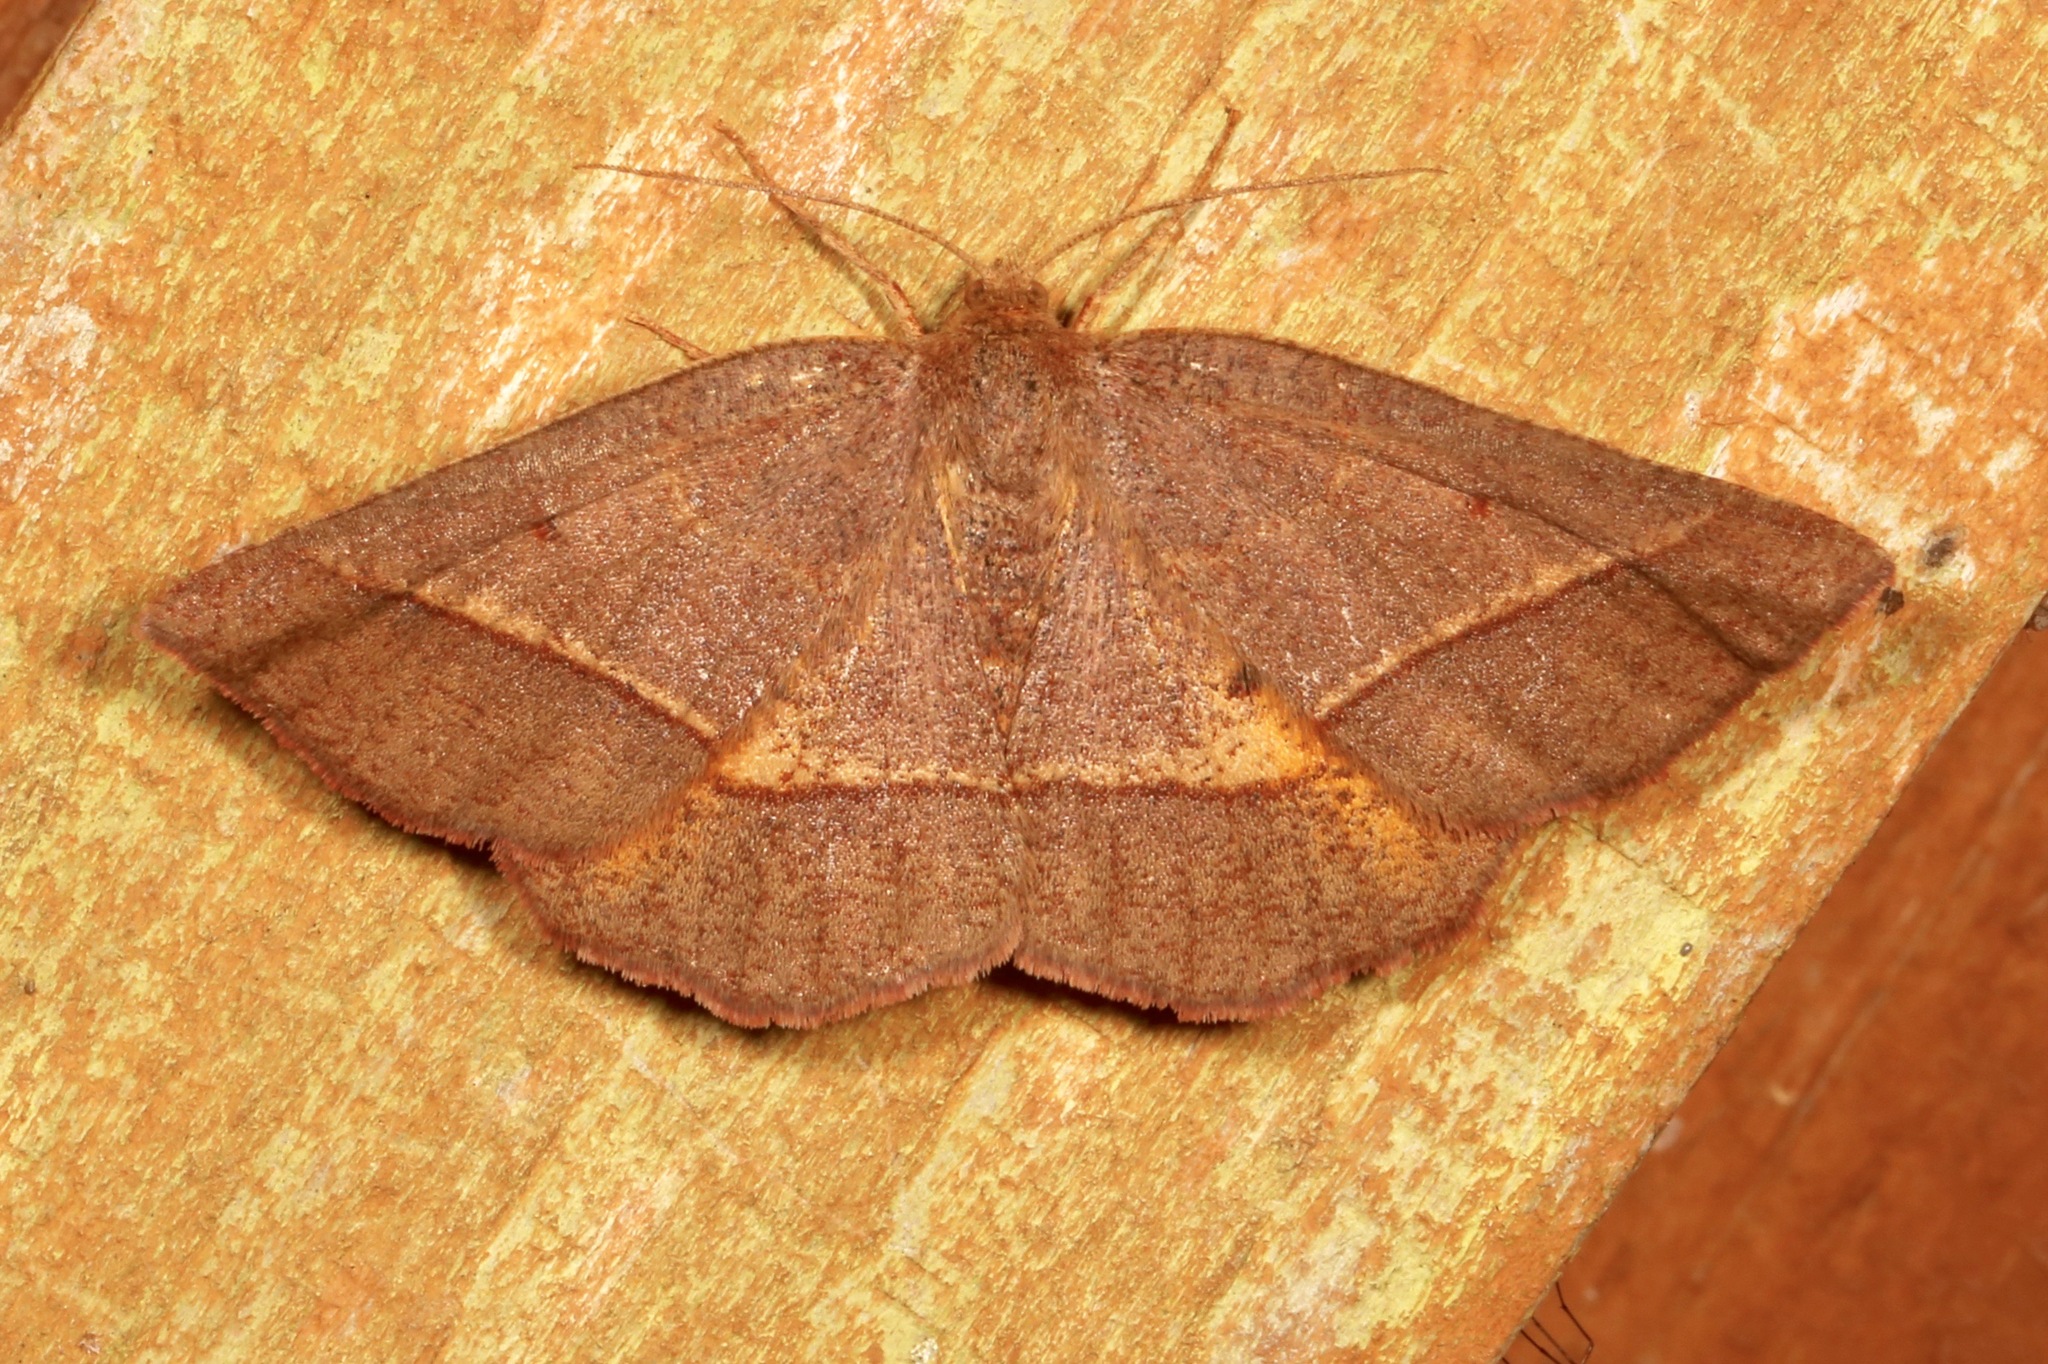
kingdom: Animalia
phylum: Arthropoda
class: Insecta
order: Lepidoptera
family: Geometridae
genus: Metarranthis
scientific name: Metarranthis obfirmaria
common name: Yellow-washed metarranthis
